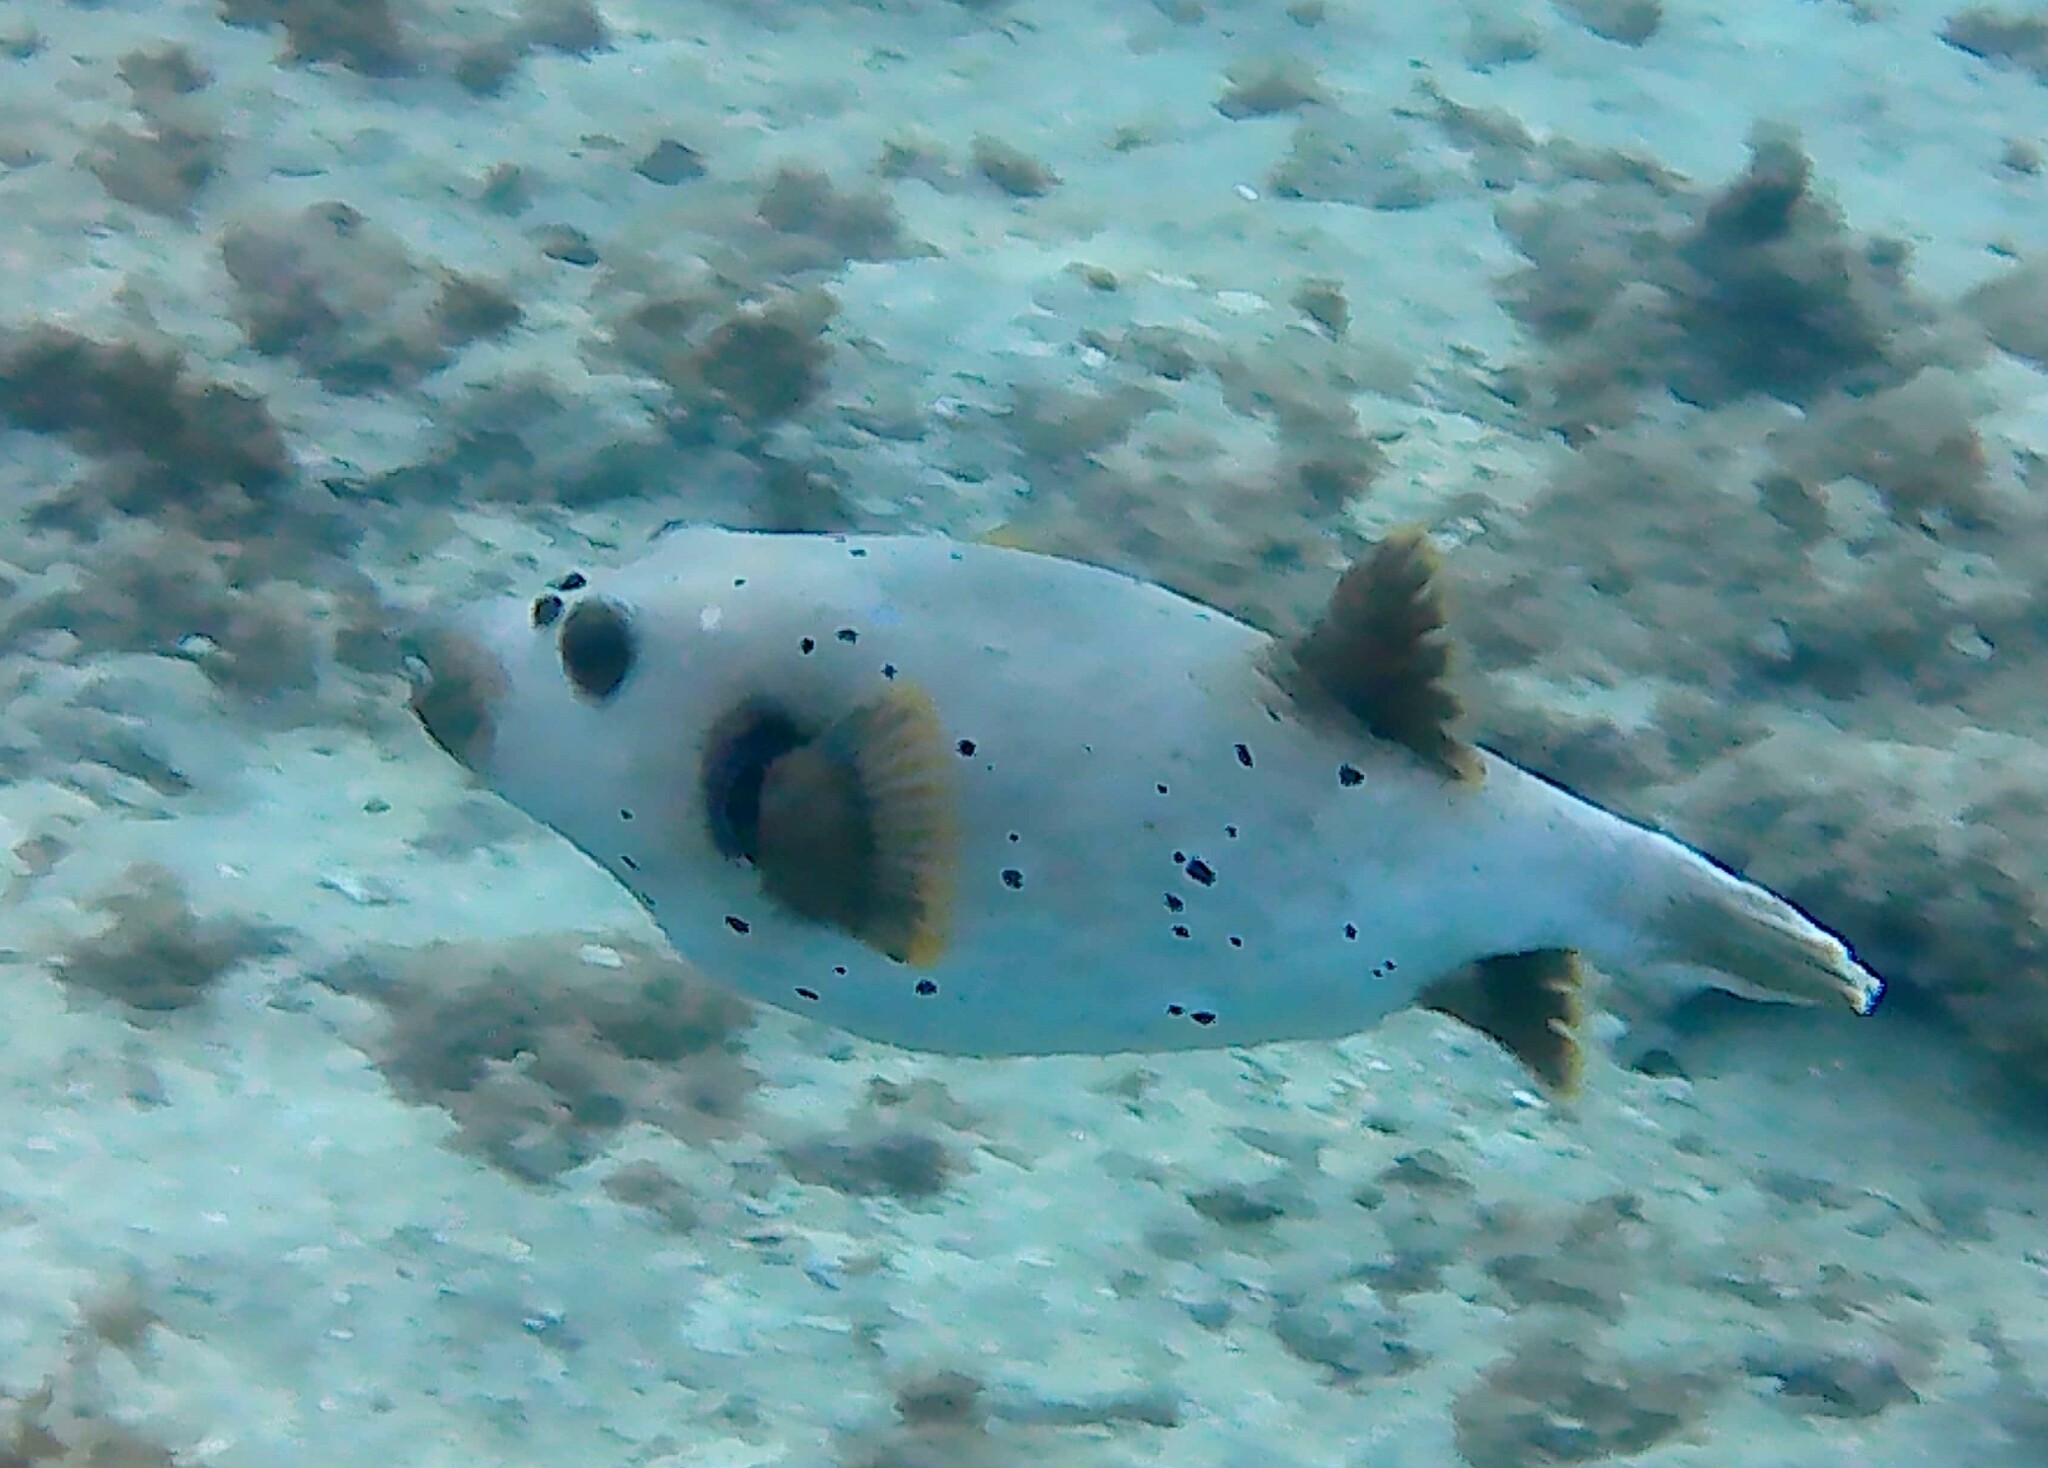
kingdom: Animalia
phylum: Chordata
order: Tetraodontiformes
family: Tetraodontidae
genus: Arothron
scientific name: Arothron nigropunctatus
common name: Black spotted blow fish
